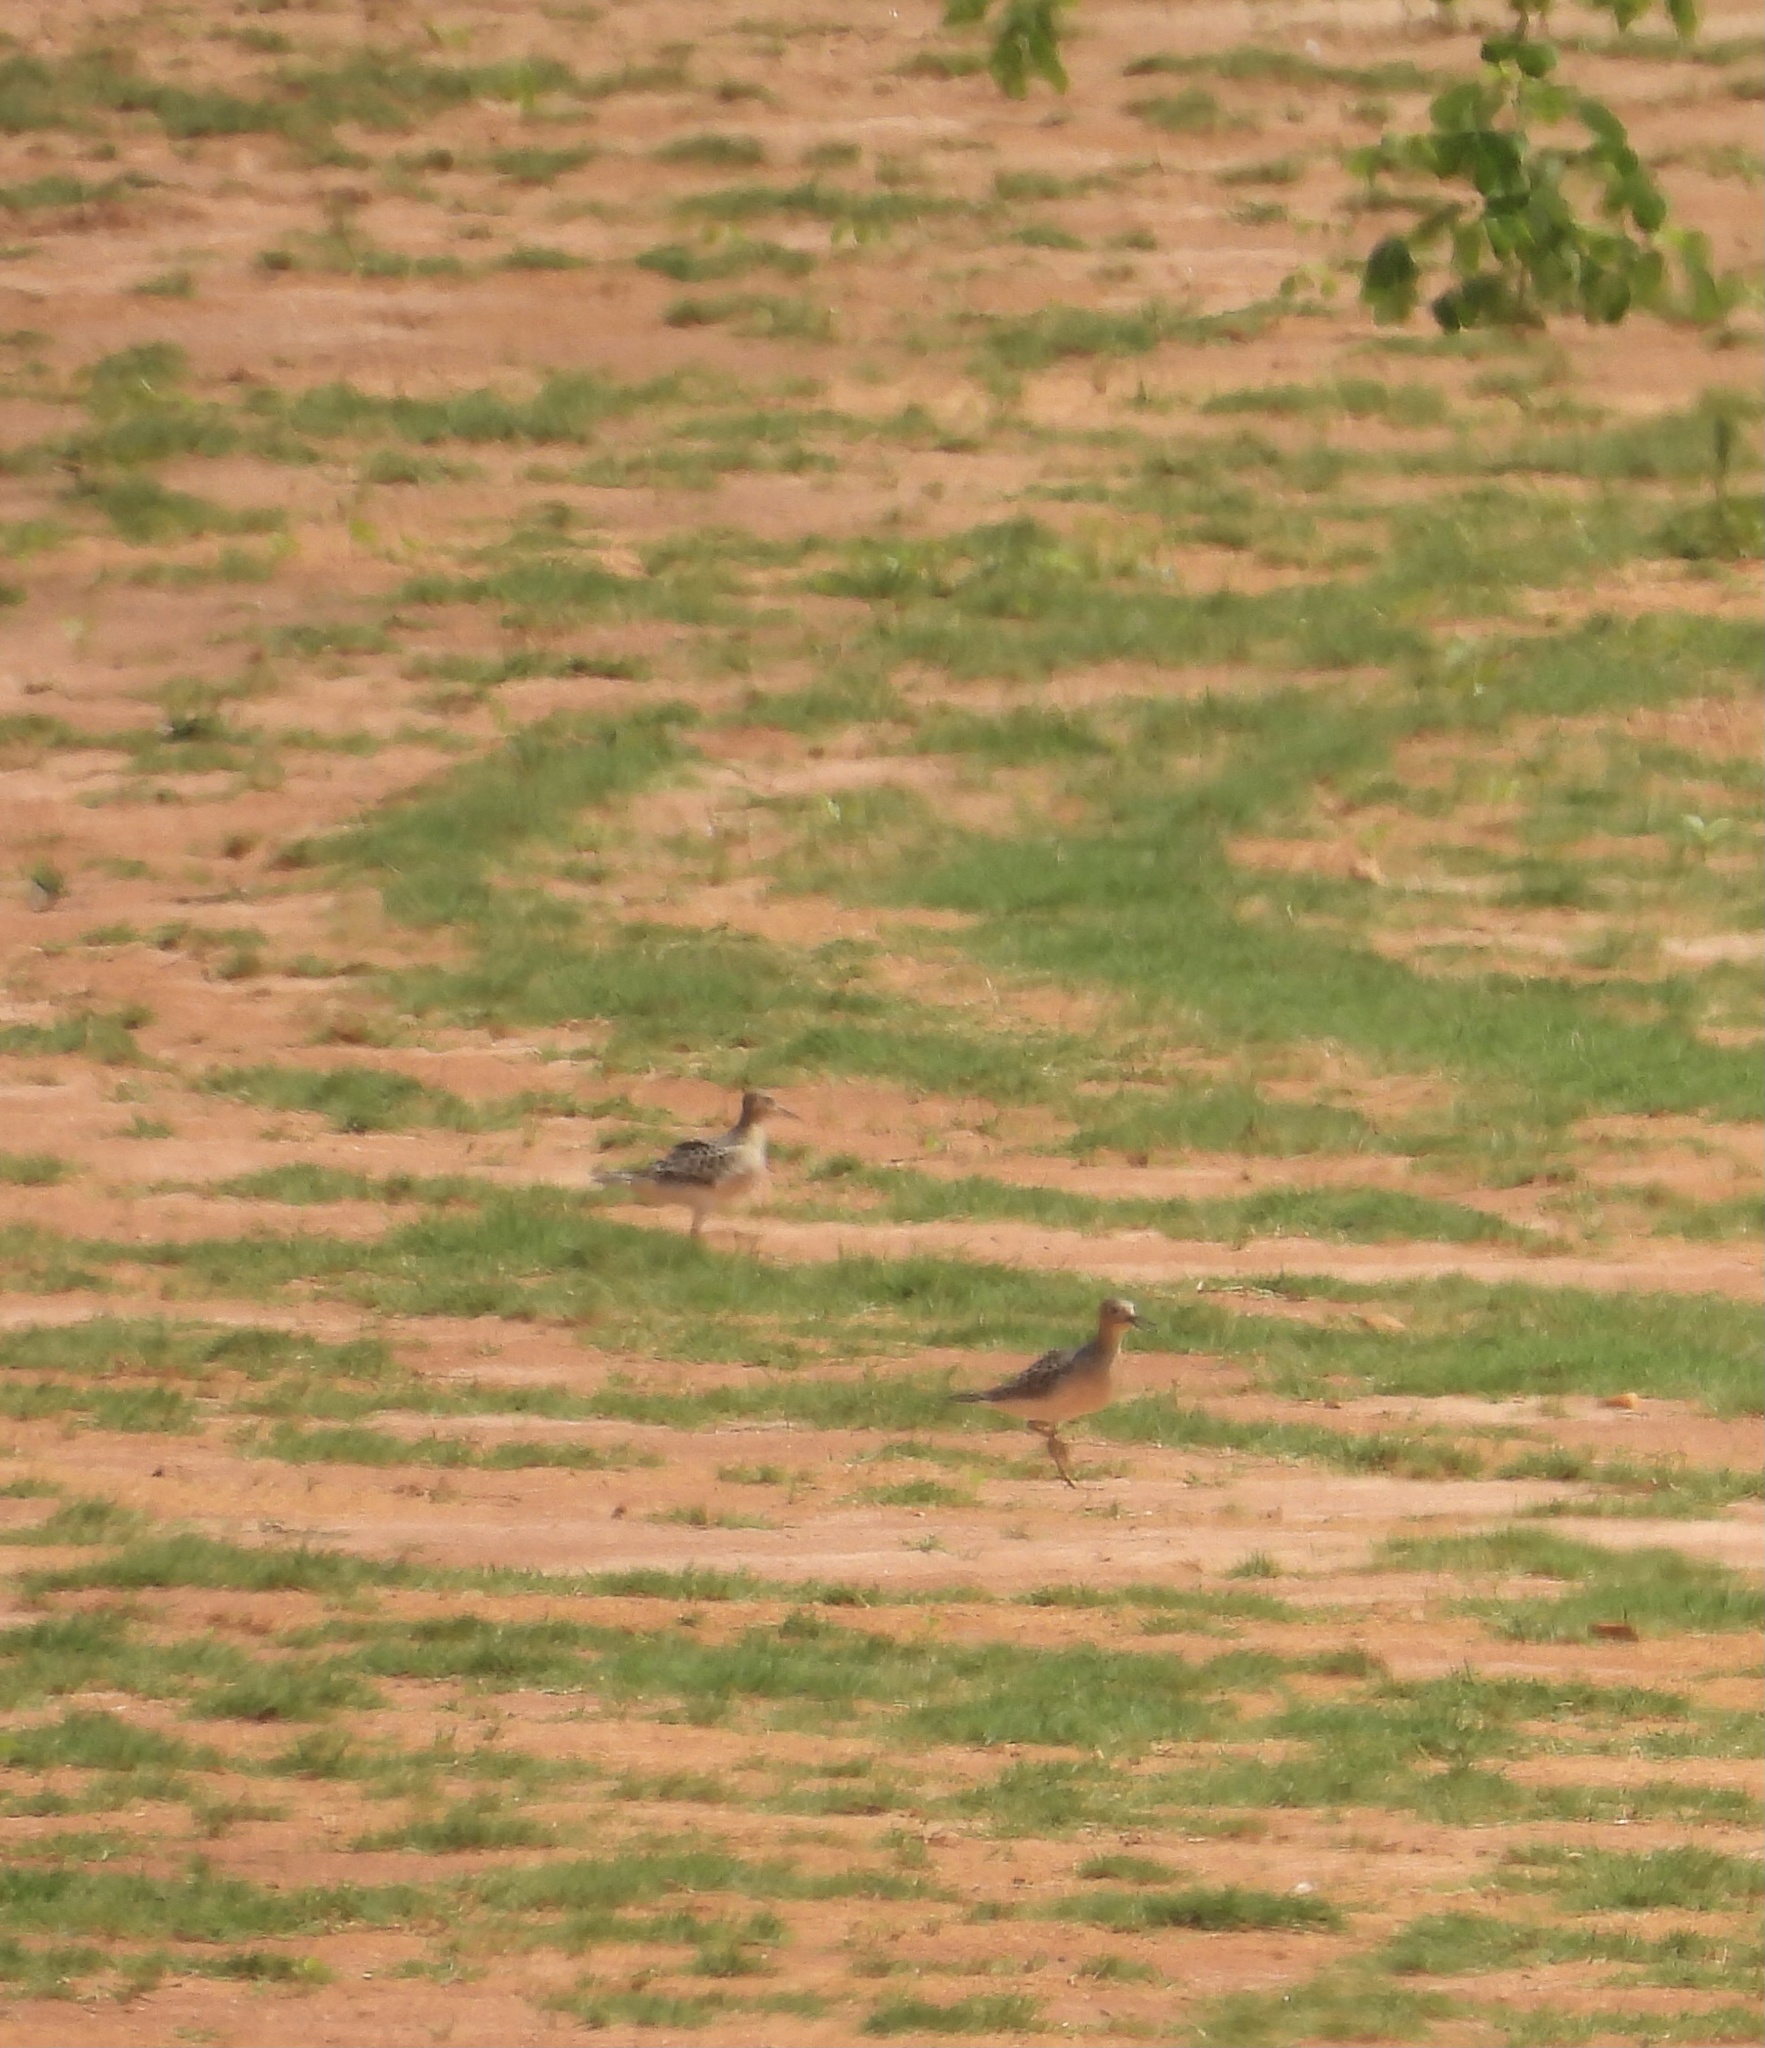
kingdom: Animalia
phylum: Chordata
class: Aves
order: Charadriiformes
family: Scolopacidae
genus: Calidris
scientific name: Calidris subruficollis
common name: Buff-breasted sandpiper
